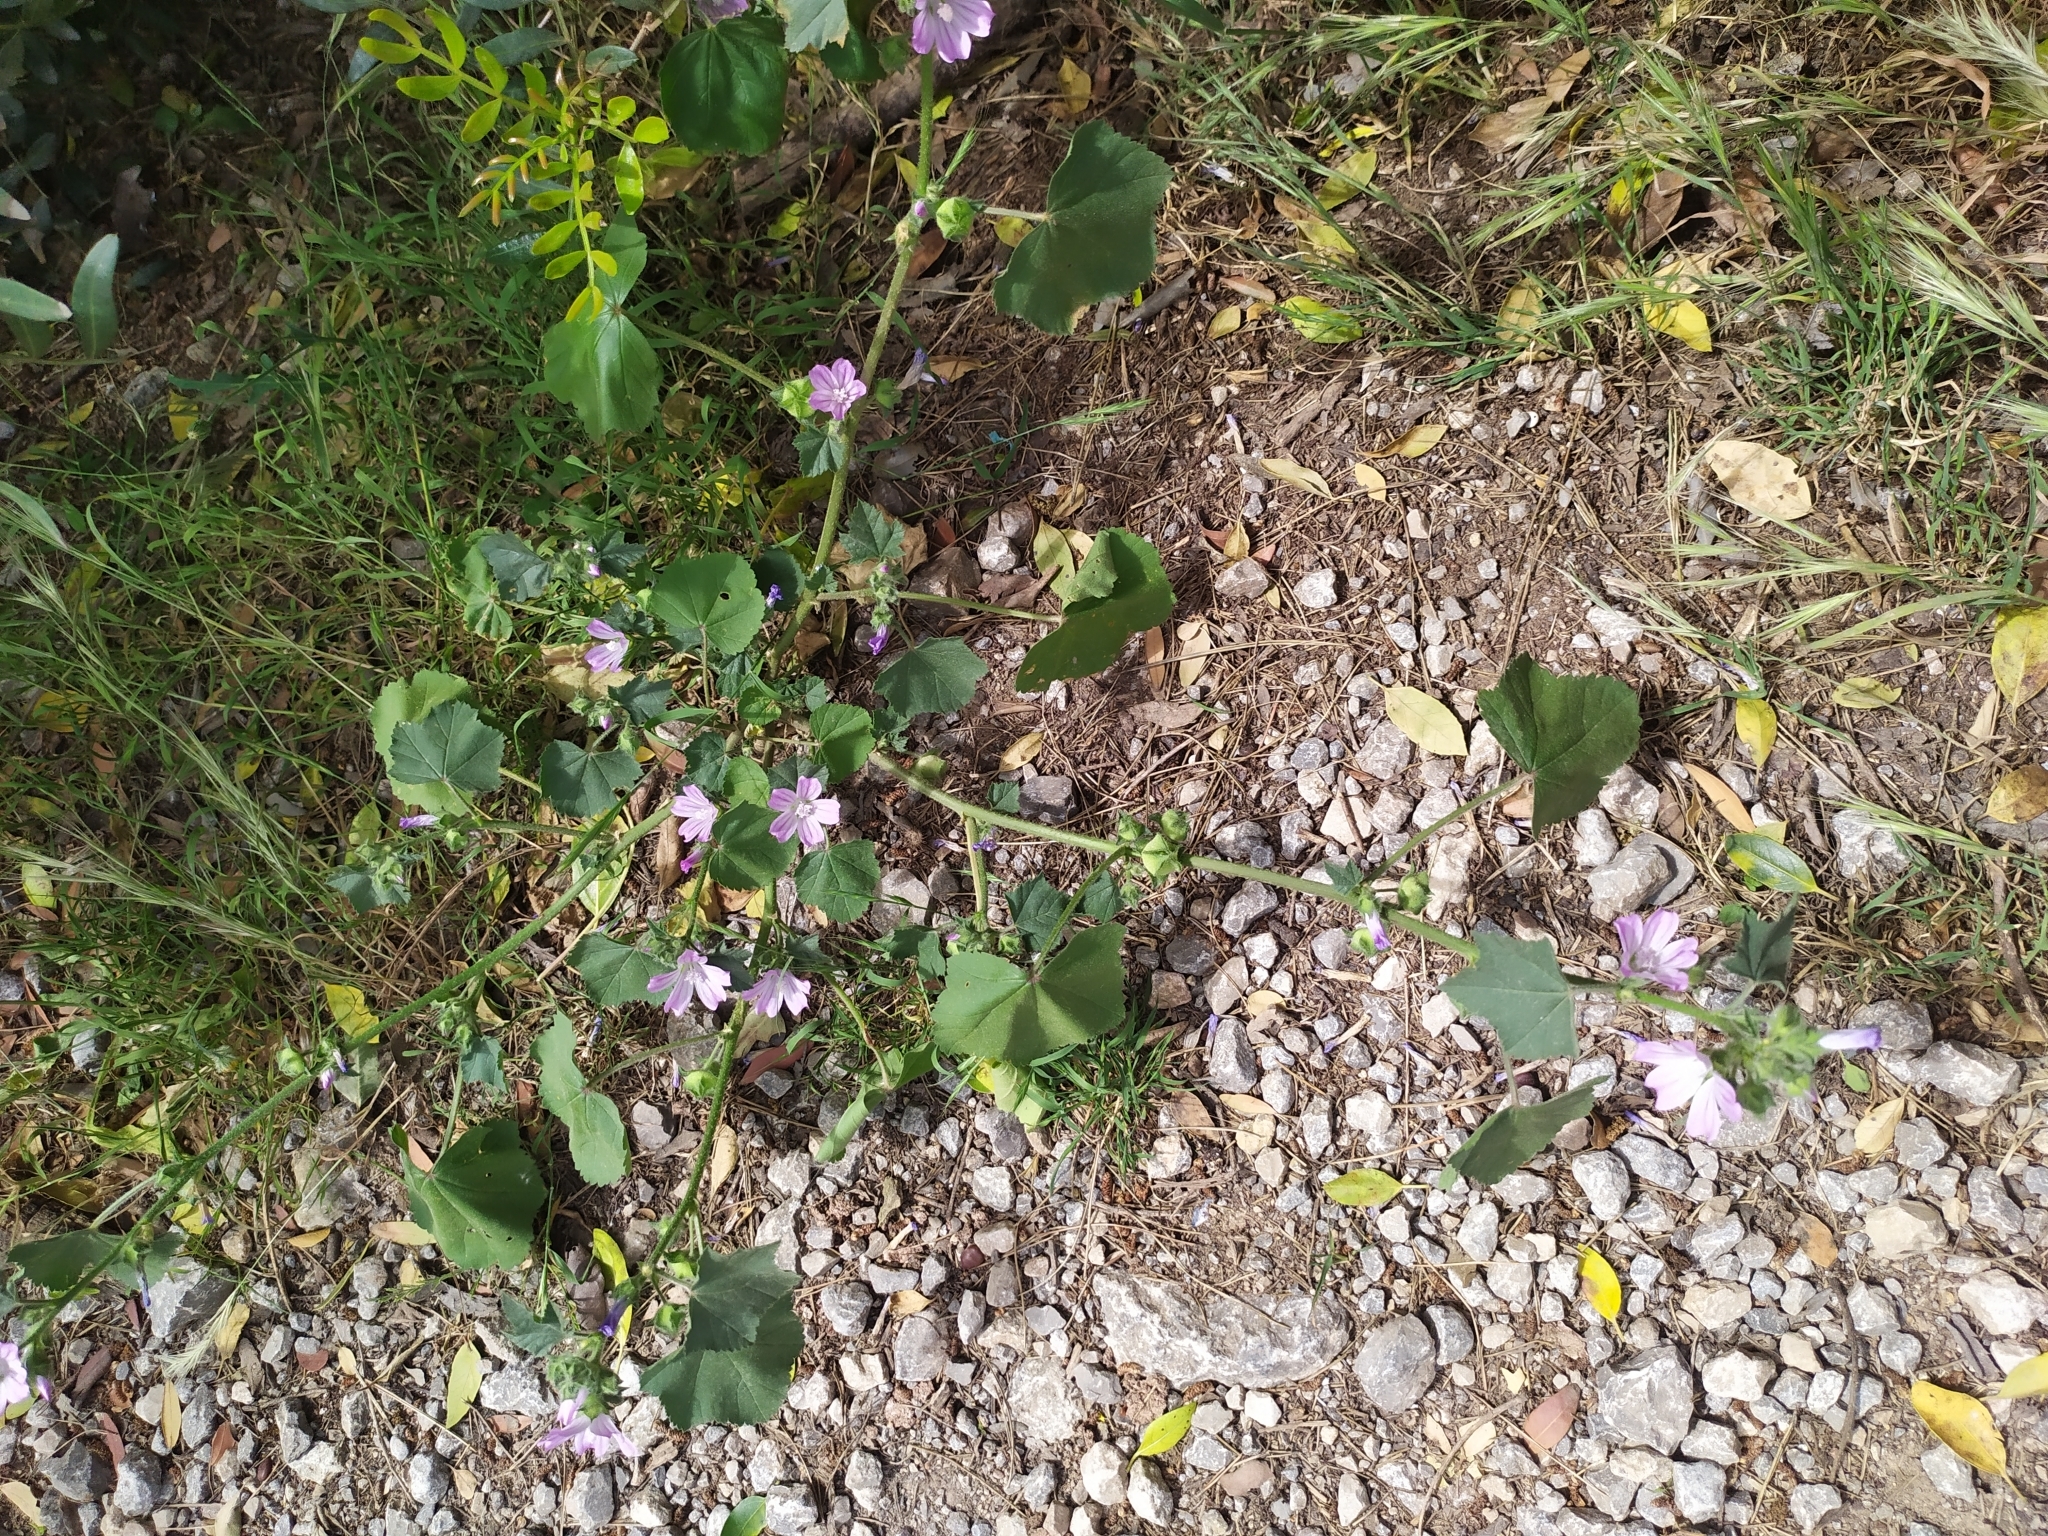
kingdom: Plantae
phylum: Tracheophyta
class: Magnoliopsida
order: Malvales
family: Malvaceae
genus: Malva
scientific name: Malva multiflora
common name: Cheeseweed
